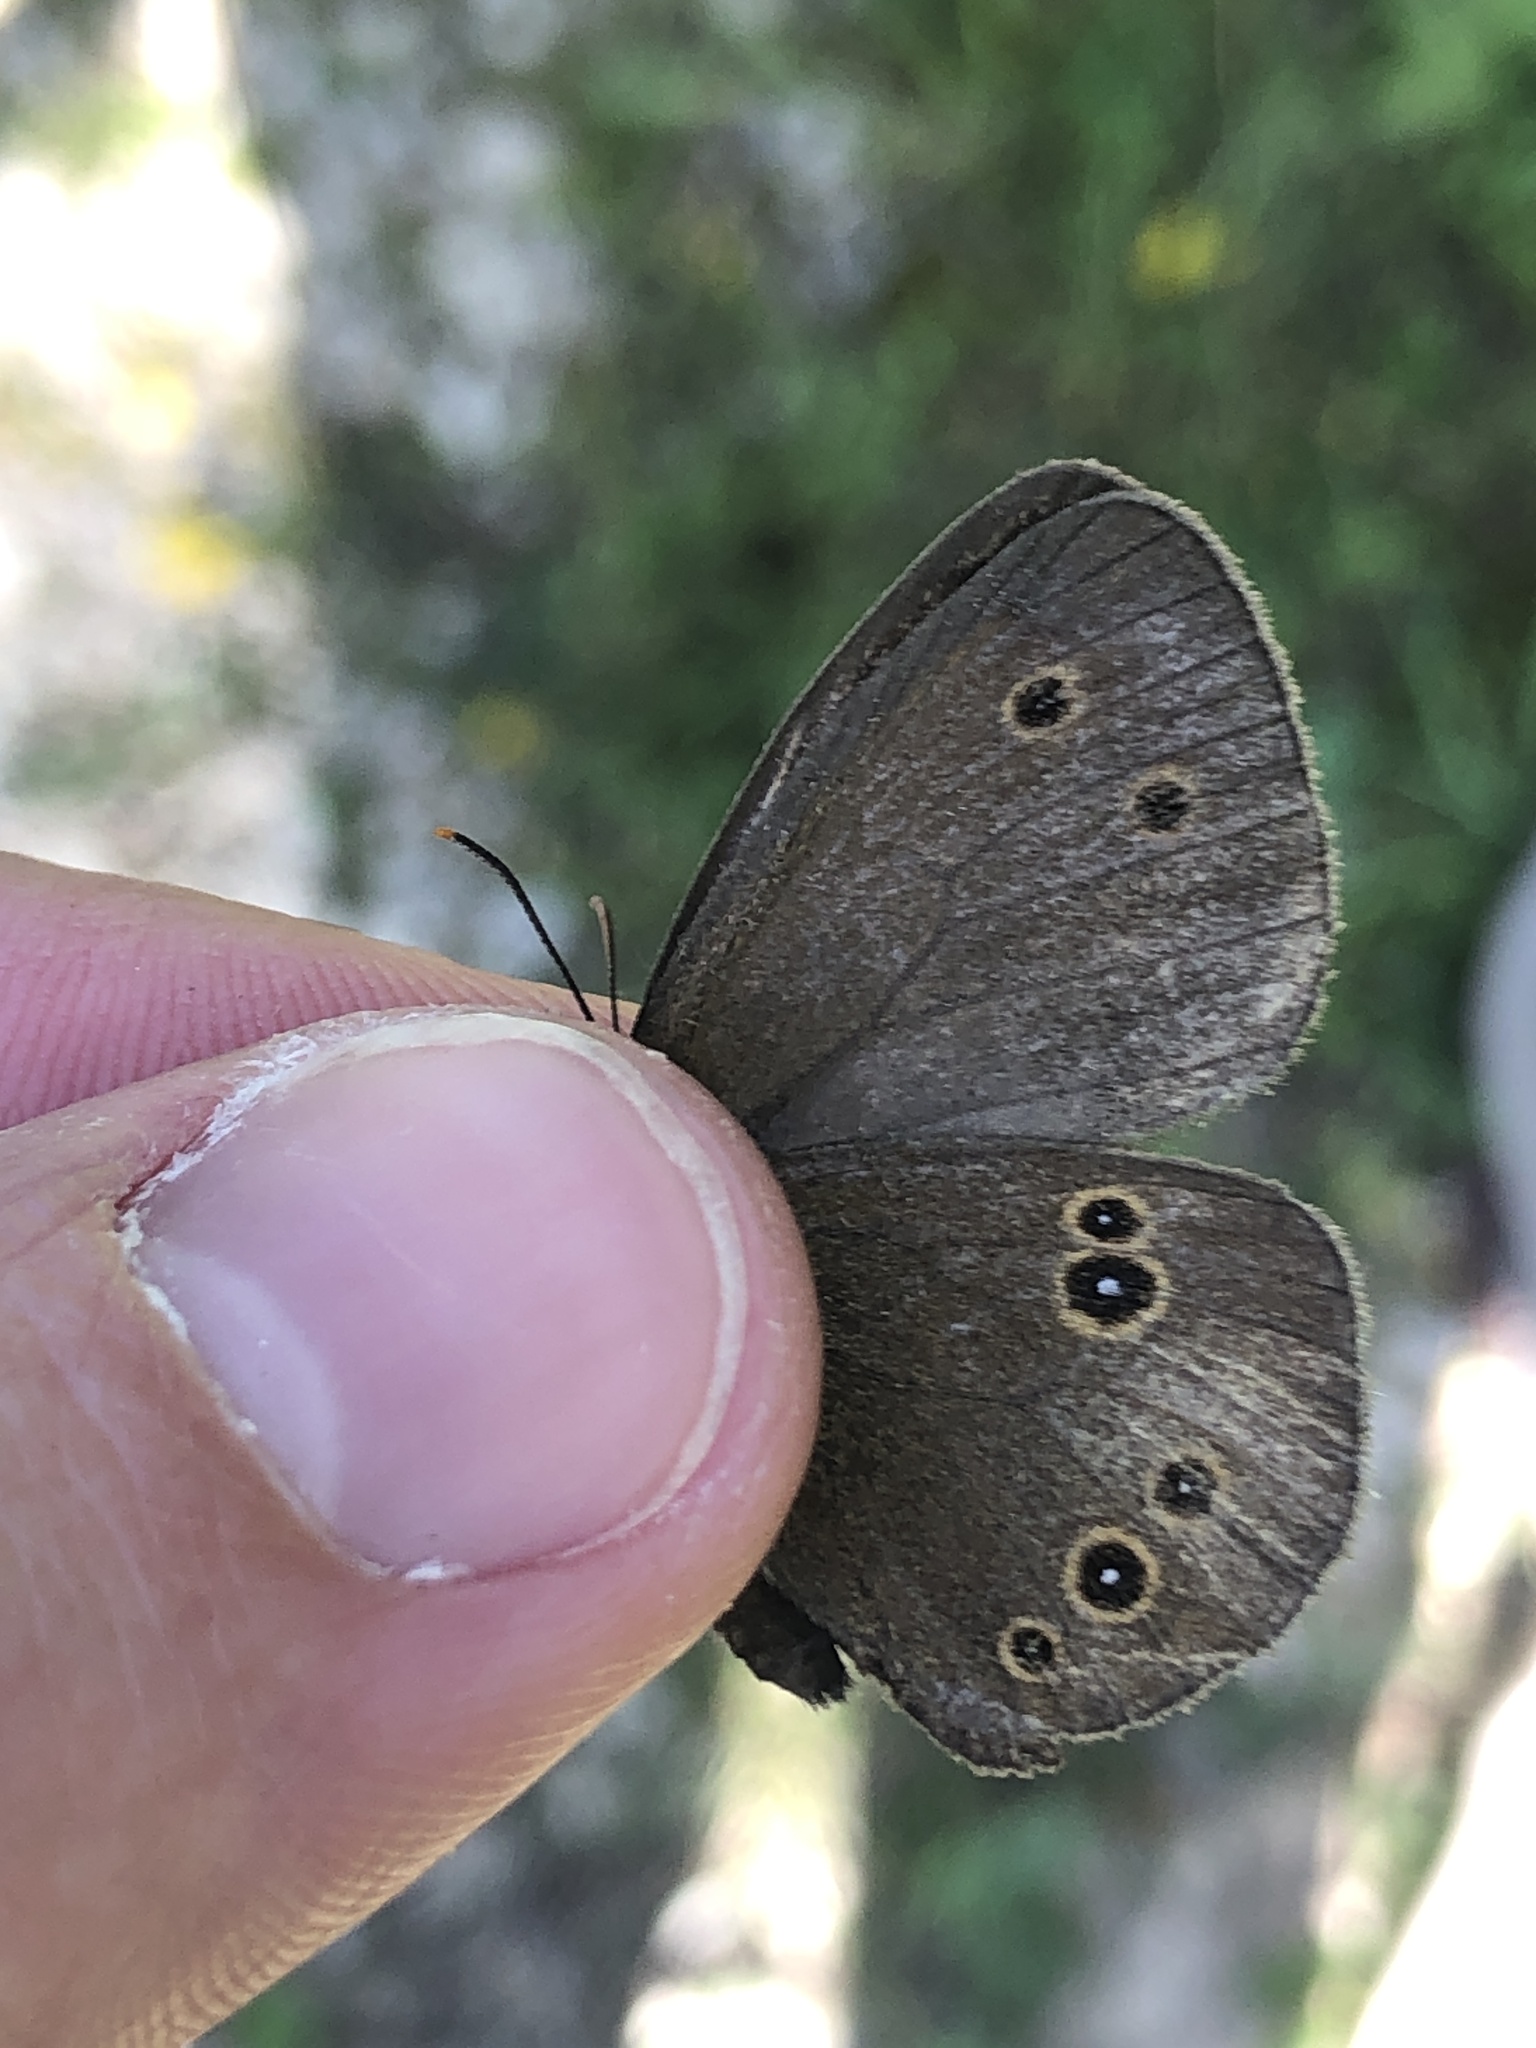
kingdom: Animalia
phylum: Arthropoda
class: Insecta
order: Lepidoptera
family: Nymphalidae
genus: Aphantopus
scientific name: Aphantopus hyperantus
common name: Ringlet
